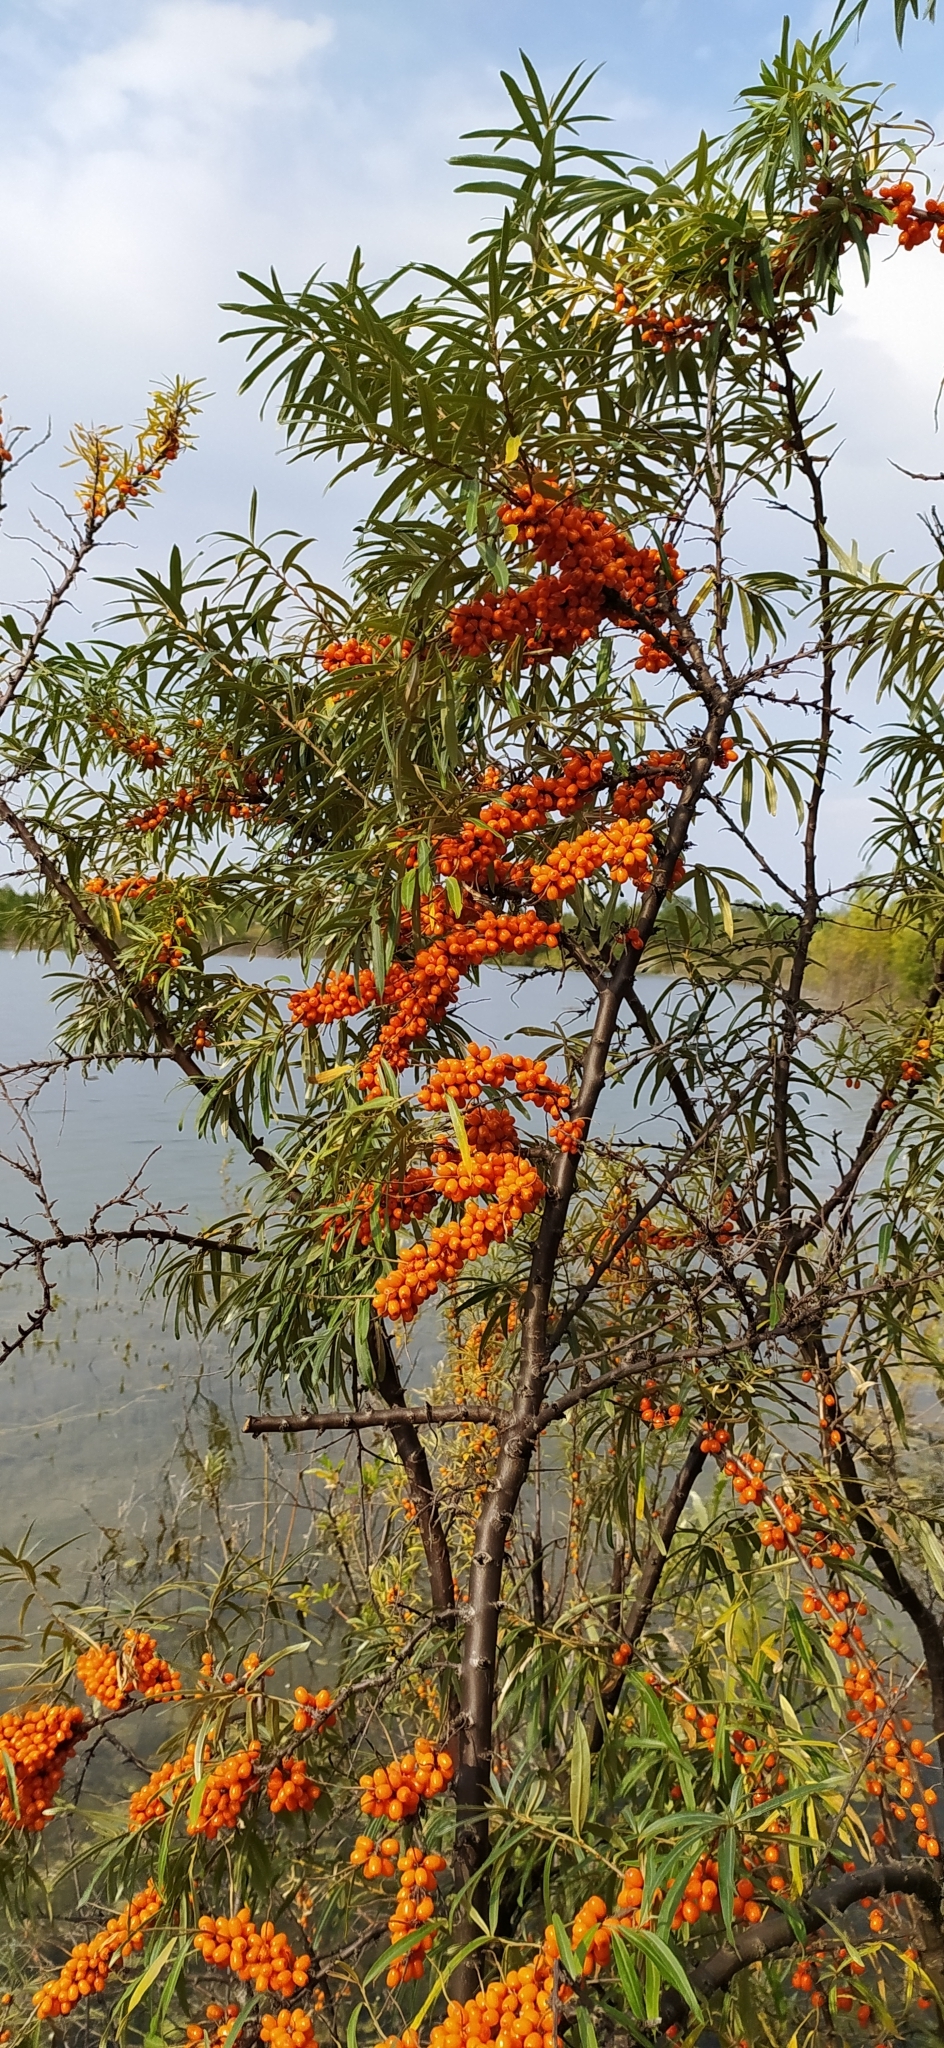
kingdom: Plantae
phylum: Tracheophyta
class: Magnoliopsida
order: Rosales
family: Elaeagnaceae
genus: Hippophae
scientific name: Hippophae rhamnoides
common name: Sea-buckthorn
